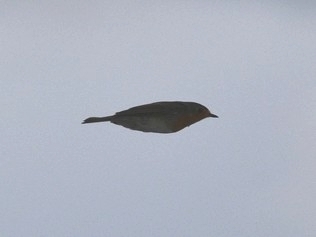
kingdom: Animalia
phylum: Chordata
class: Aves
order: Passeriformes
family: Muscicapidae
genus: Erithacus
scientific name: Erithacus rubecula
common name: European robin
